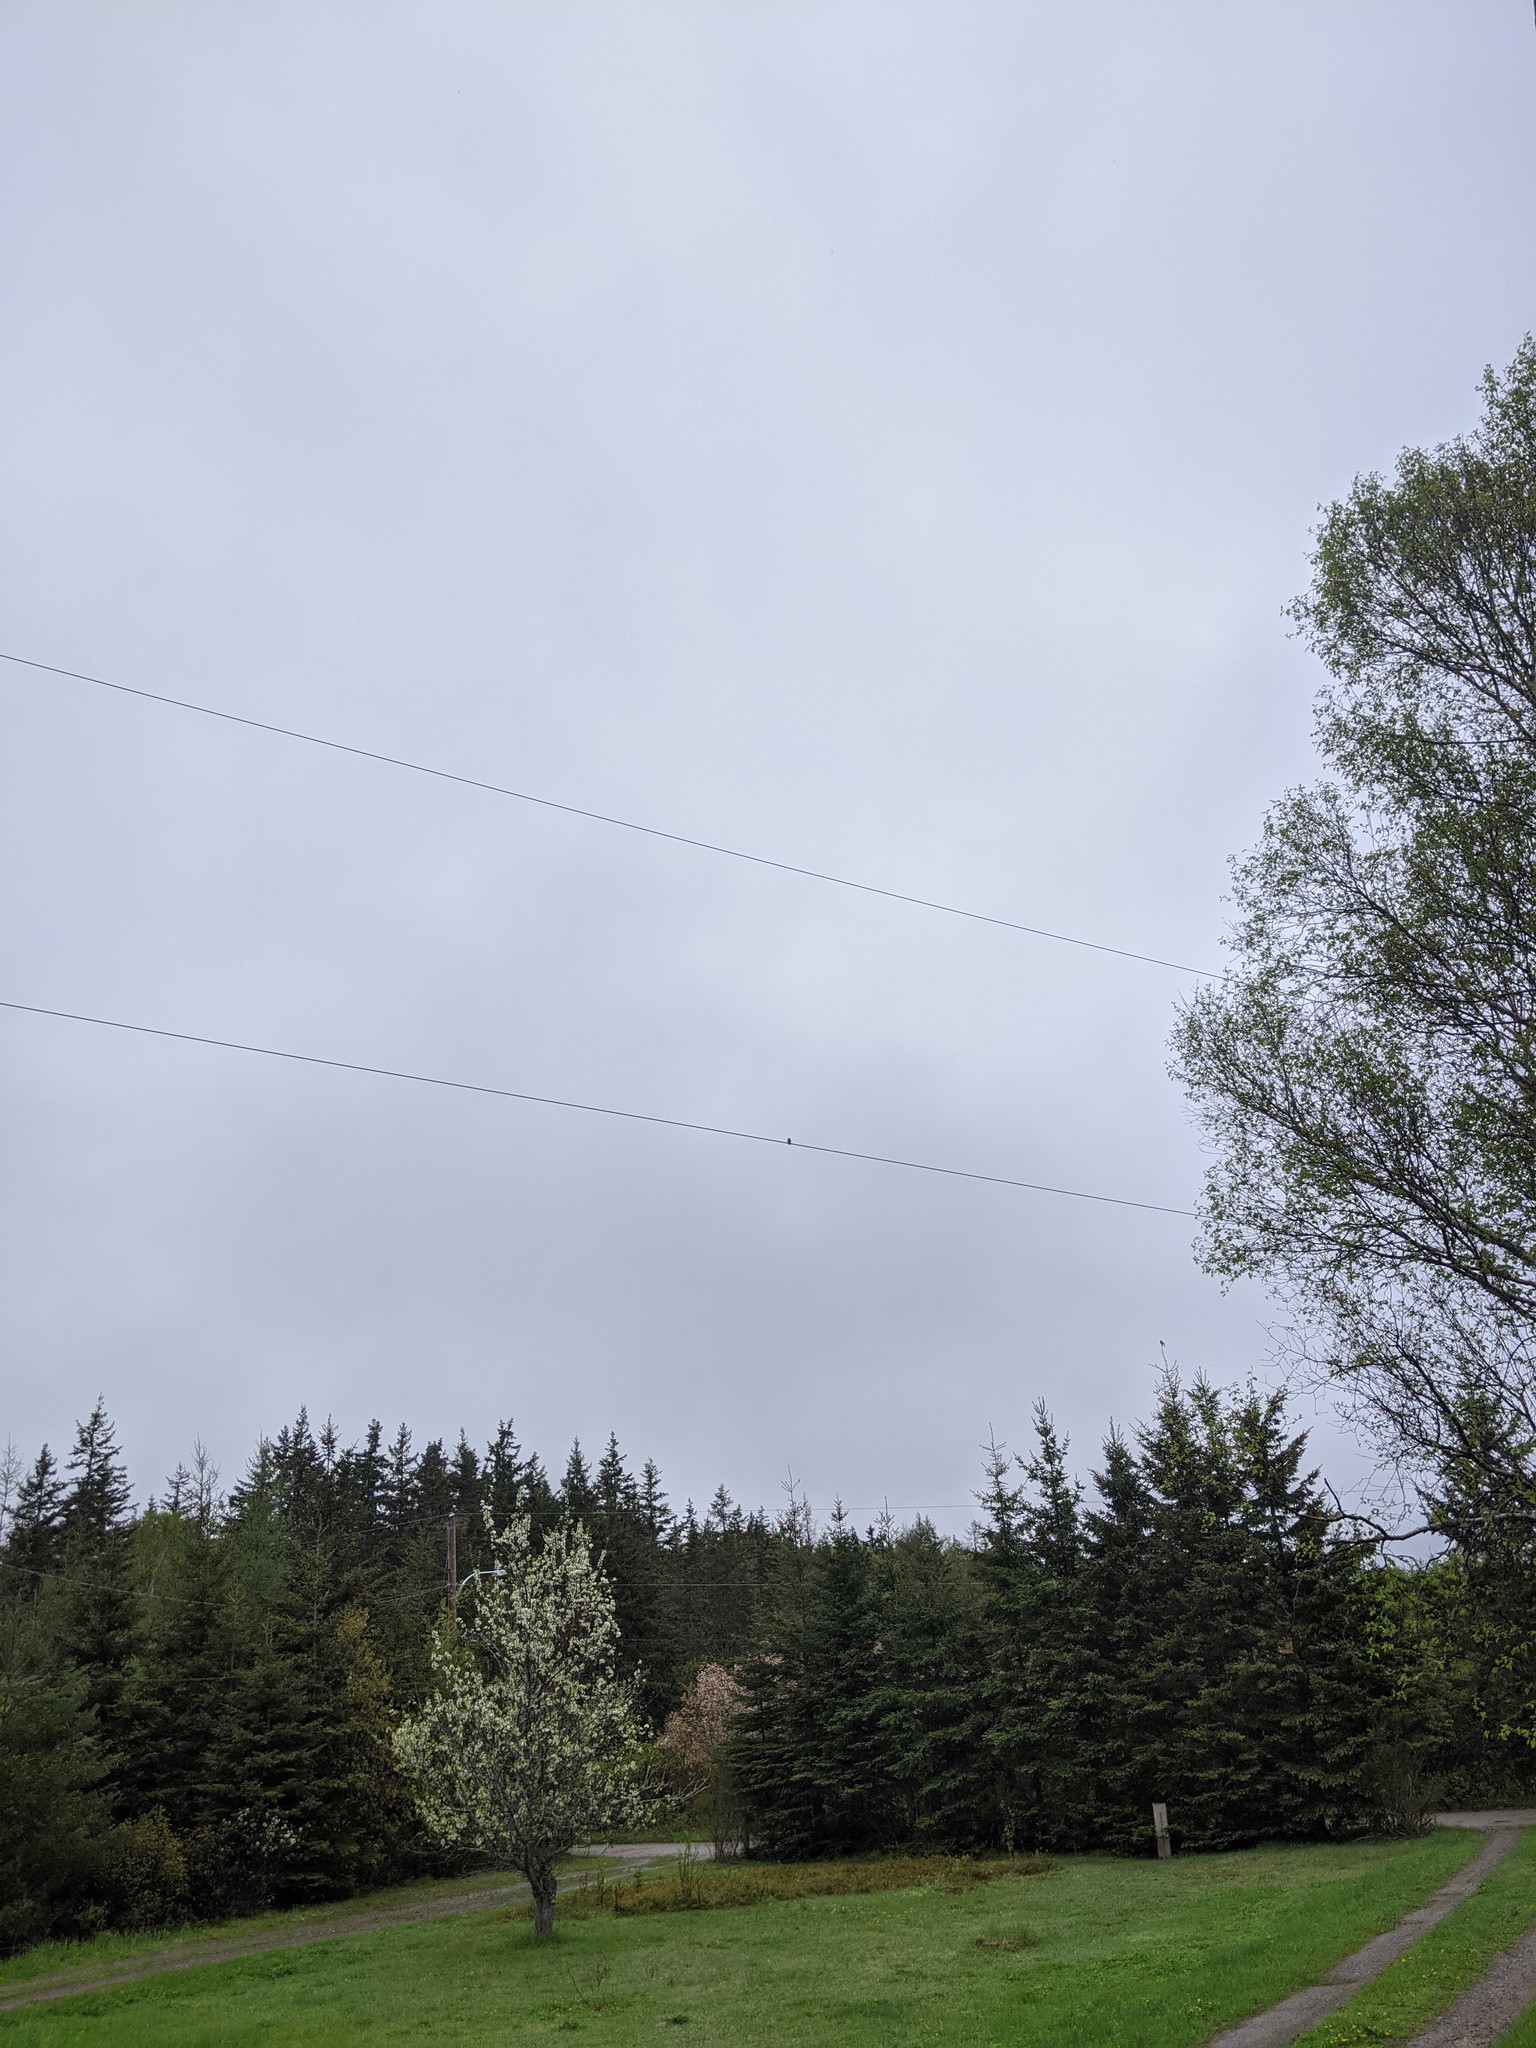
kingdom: Animalia
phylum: Chordata
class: Aves
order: Apodiformes
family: Trochilidae
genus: Archilochus
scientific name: Archilochus colubris
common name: Ruby-throated hummingbird
